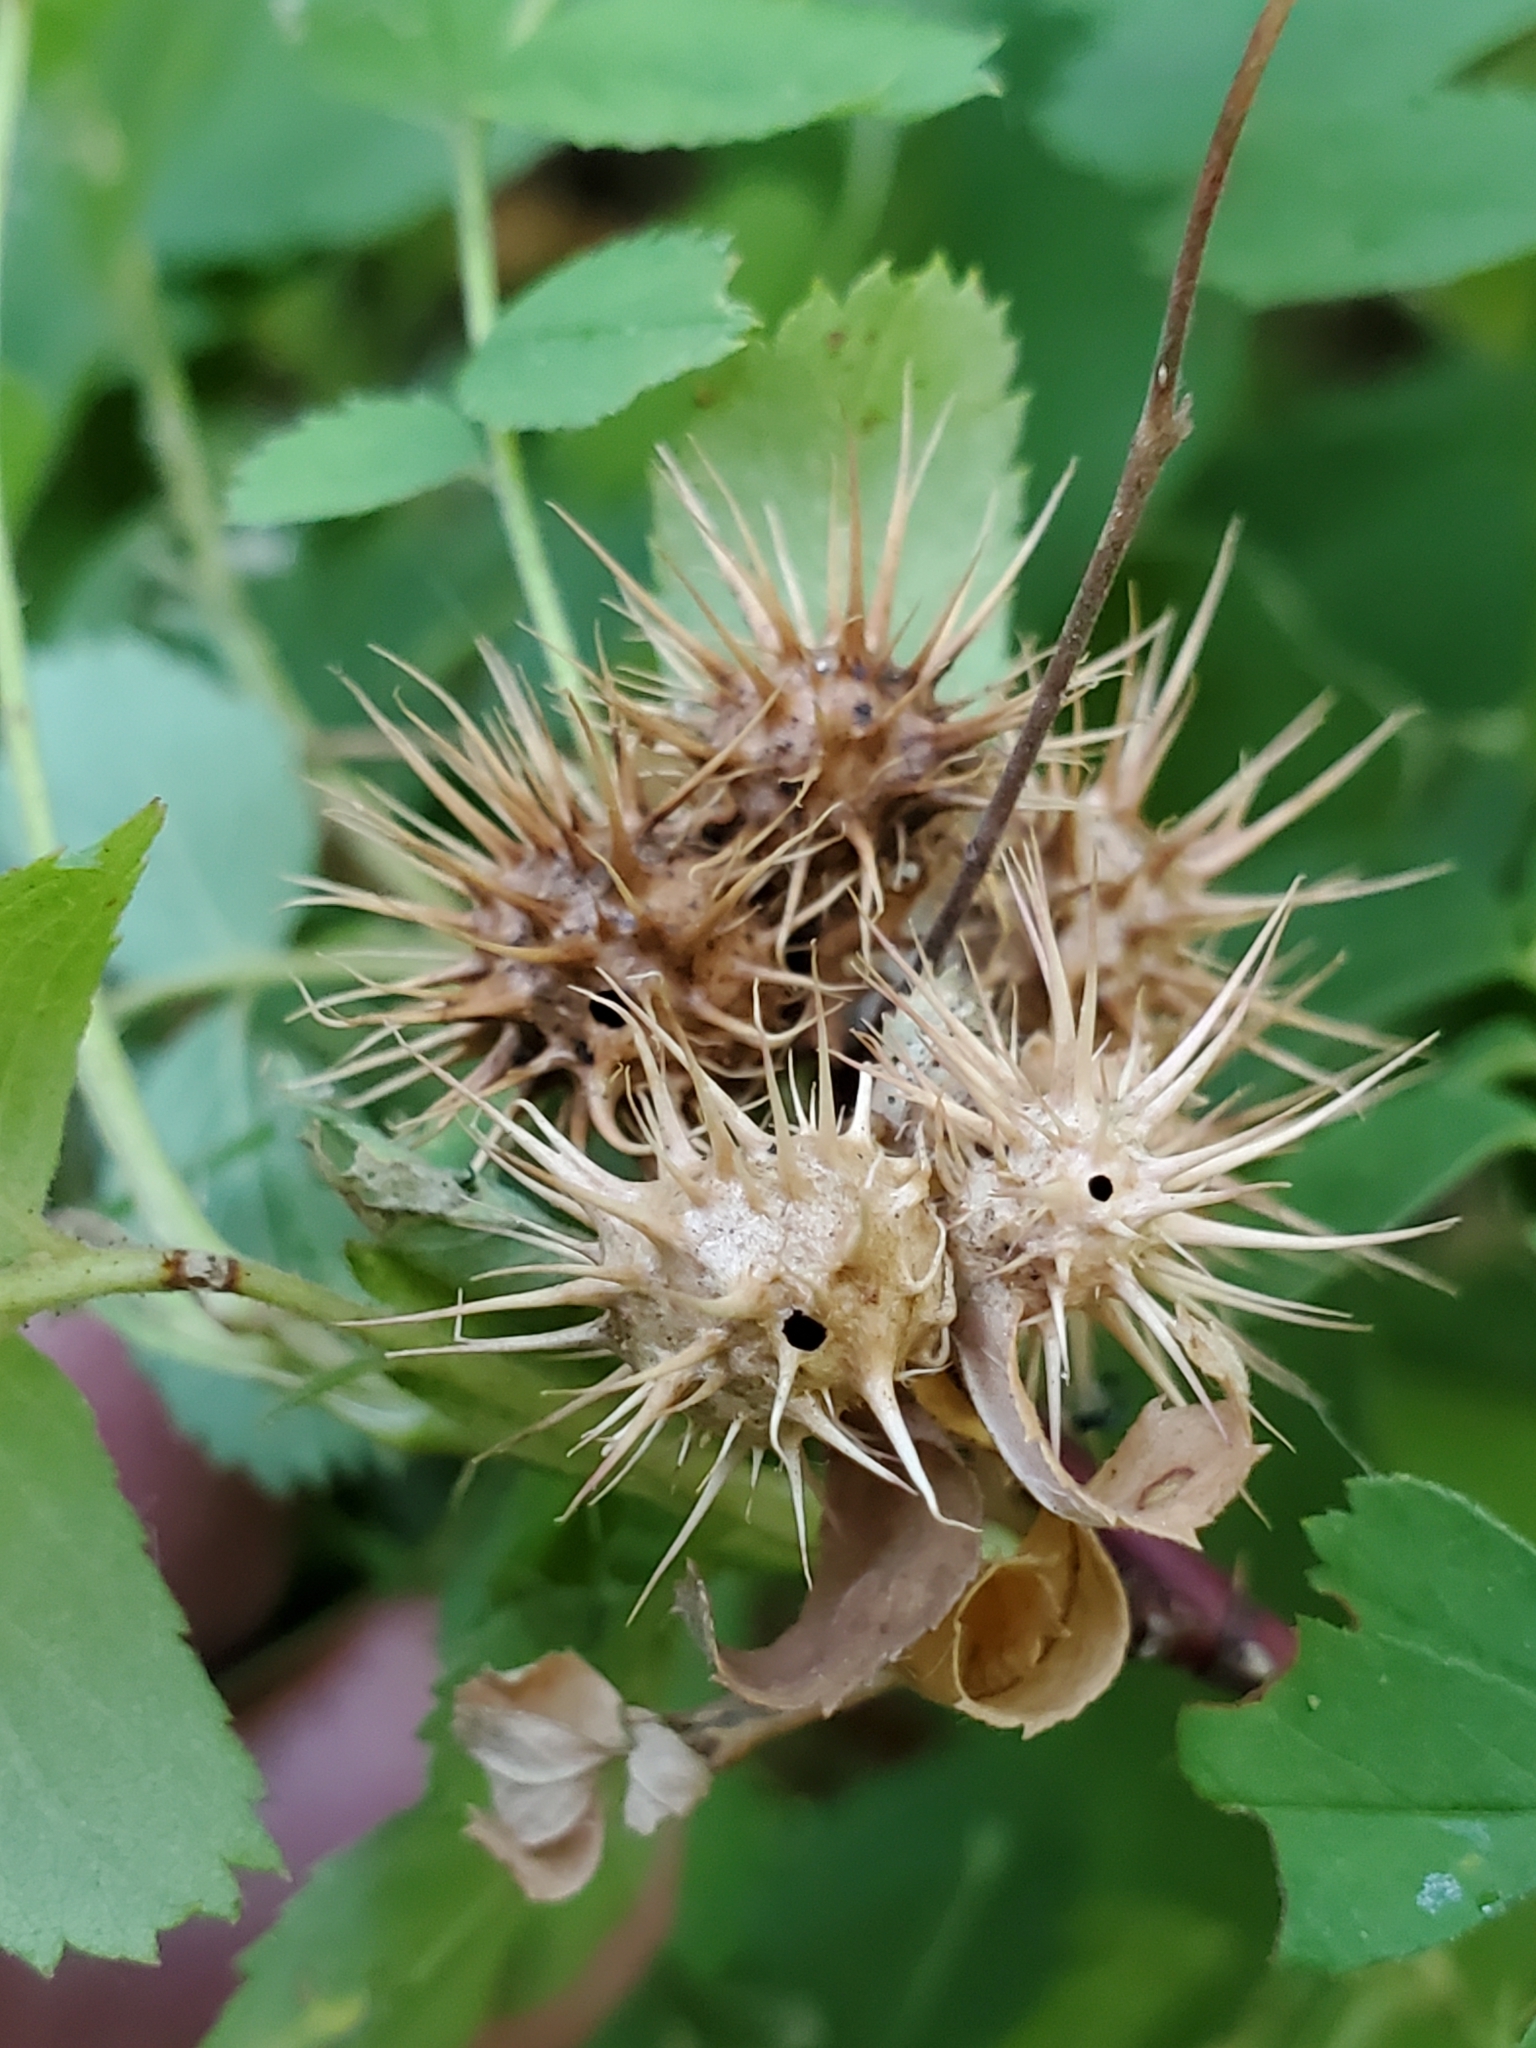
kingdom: Animalia
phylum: Arthropoda
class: Insecta
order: Hymenoptera
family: Cynipidae
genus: Diplolepis
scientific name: Diplolepis bicolor
